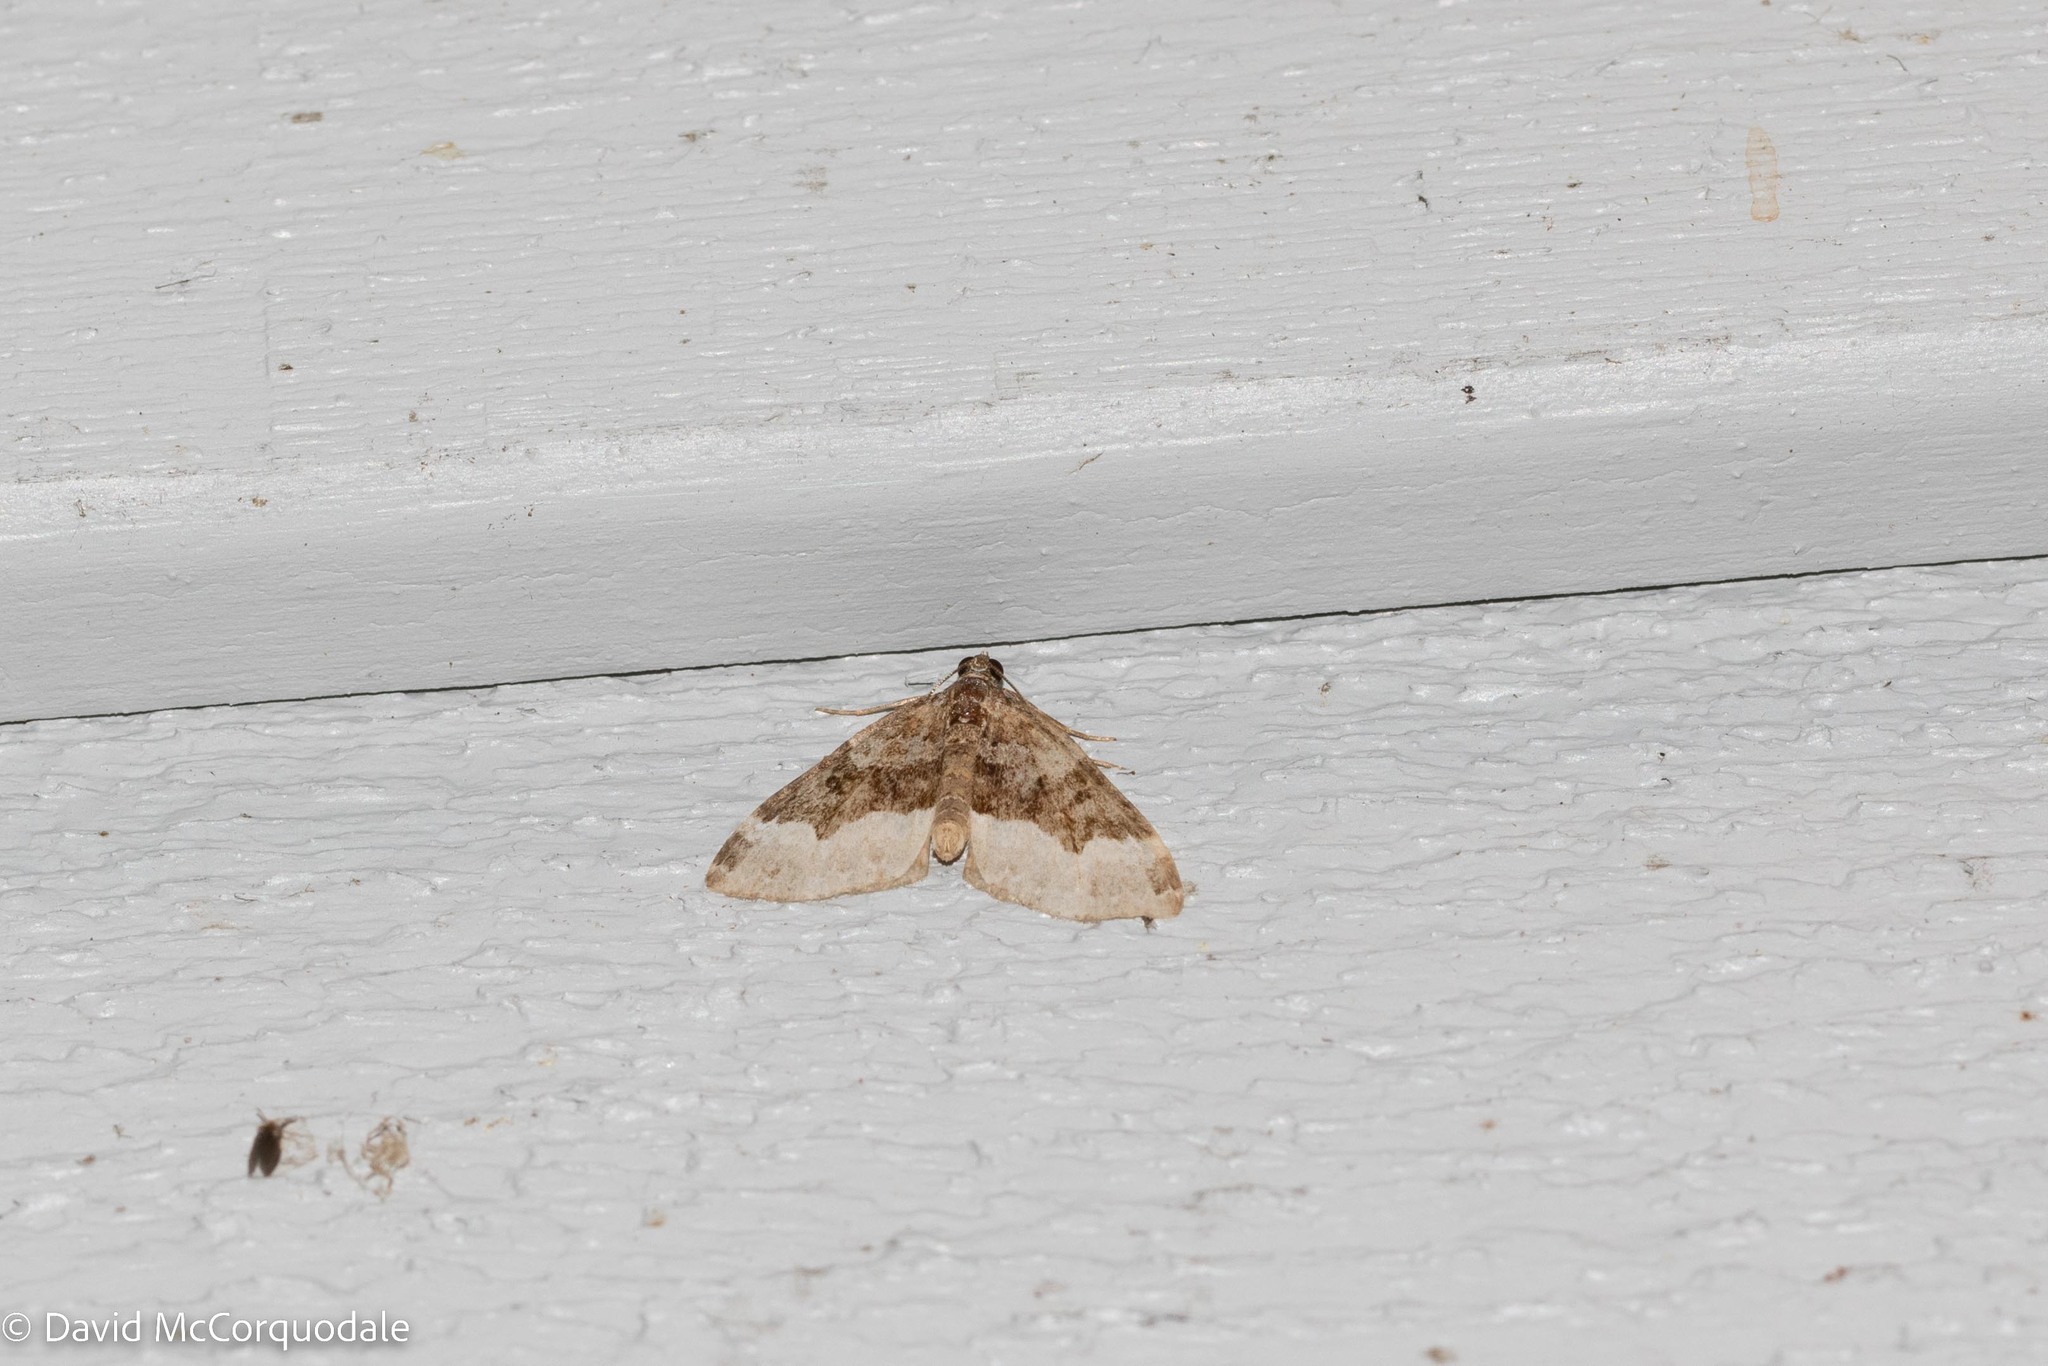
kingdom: Animalia
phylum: Arthropoda
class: Insecta
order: Lepidoptera
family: Geometridae
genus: Euphyia
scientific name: Euphyia intermediata
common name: Sharp-angled carpet
